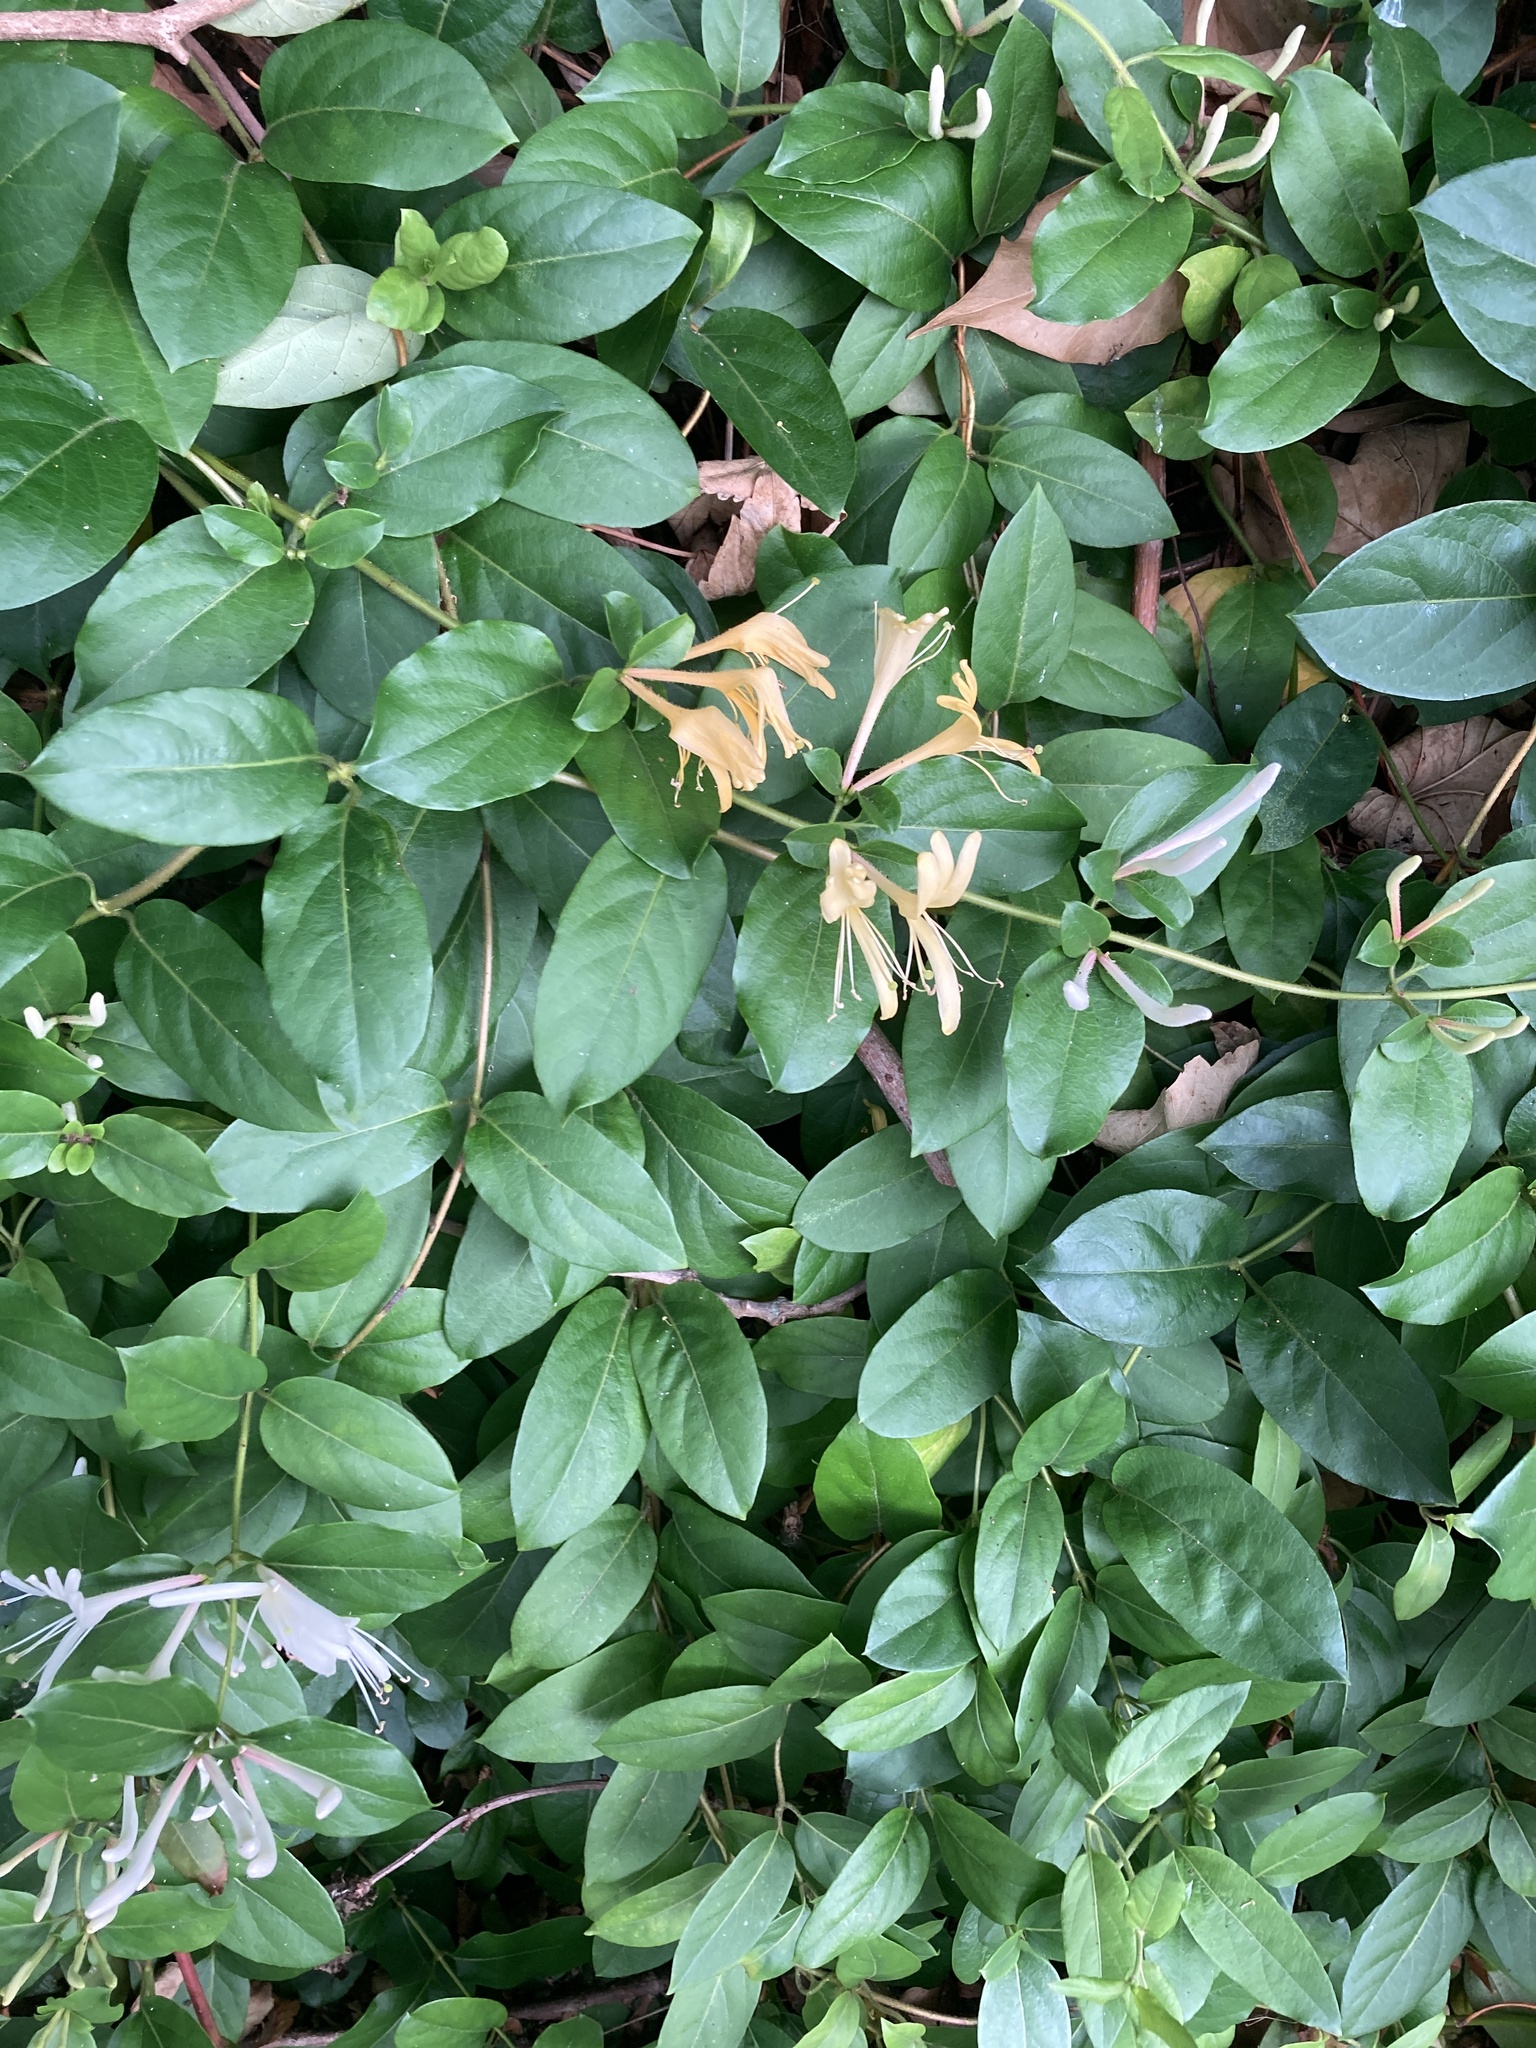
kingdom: Plantae
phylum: Tracheophyta
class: Magnoliopsida
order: Dipsacales
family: Caprifoliaceae
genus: Lonicera
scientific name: Lonicera japonica
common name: Japanese honeysuckle
